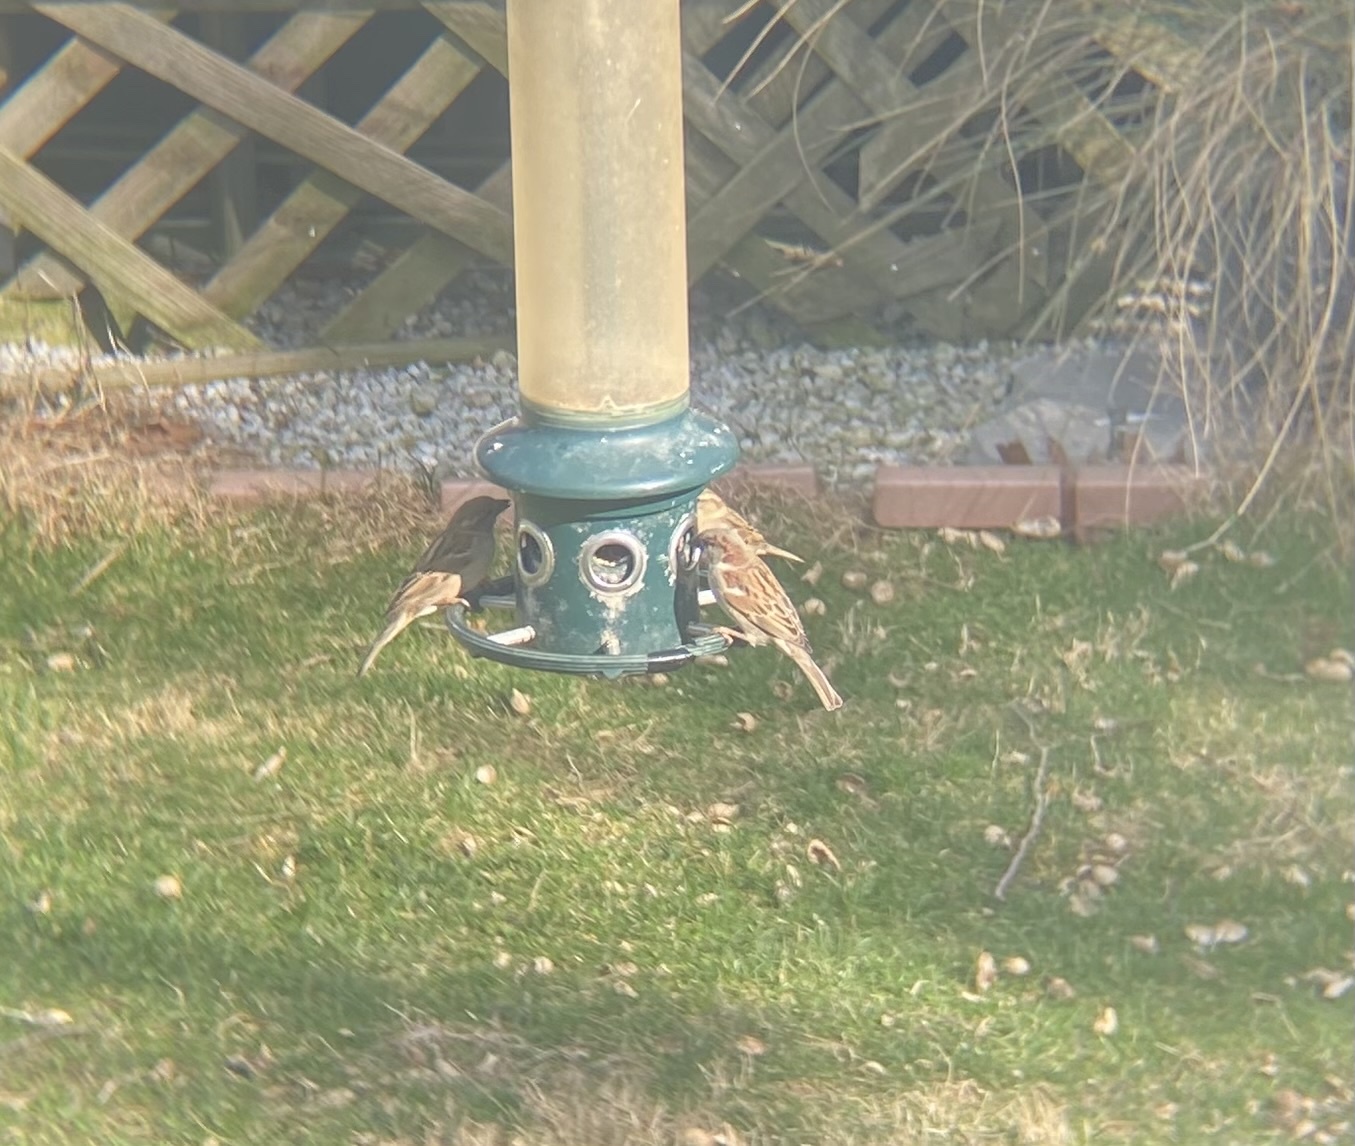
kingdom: Animalia
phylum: Chordata
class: Aves
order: Passeriformes
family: Passeridae
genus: Passer
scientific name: Passer domesticus
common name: House sparrow
